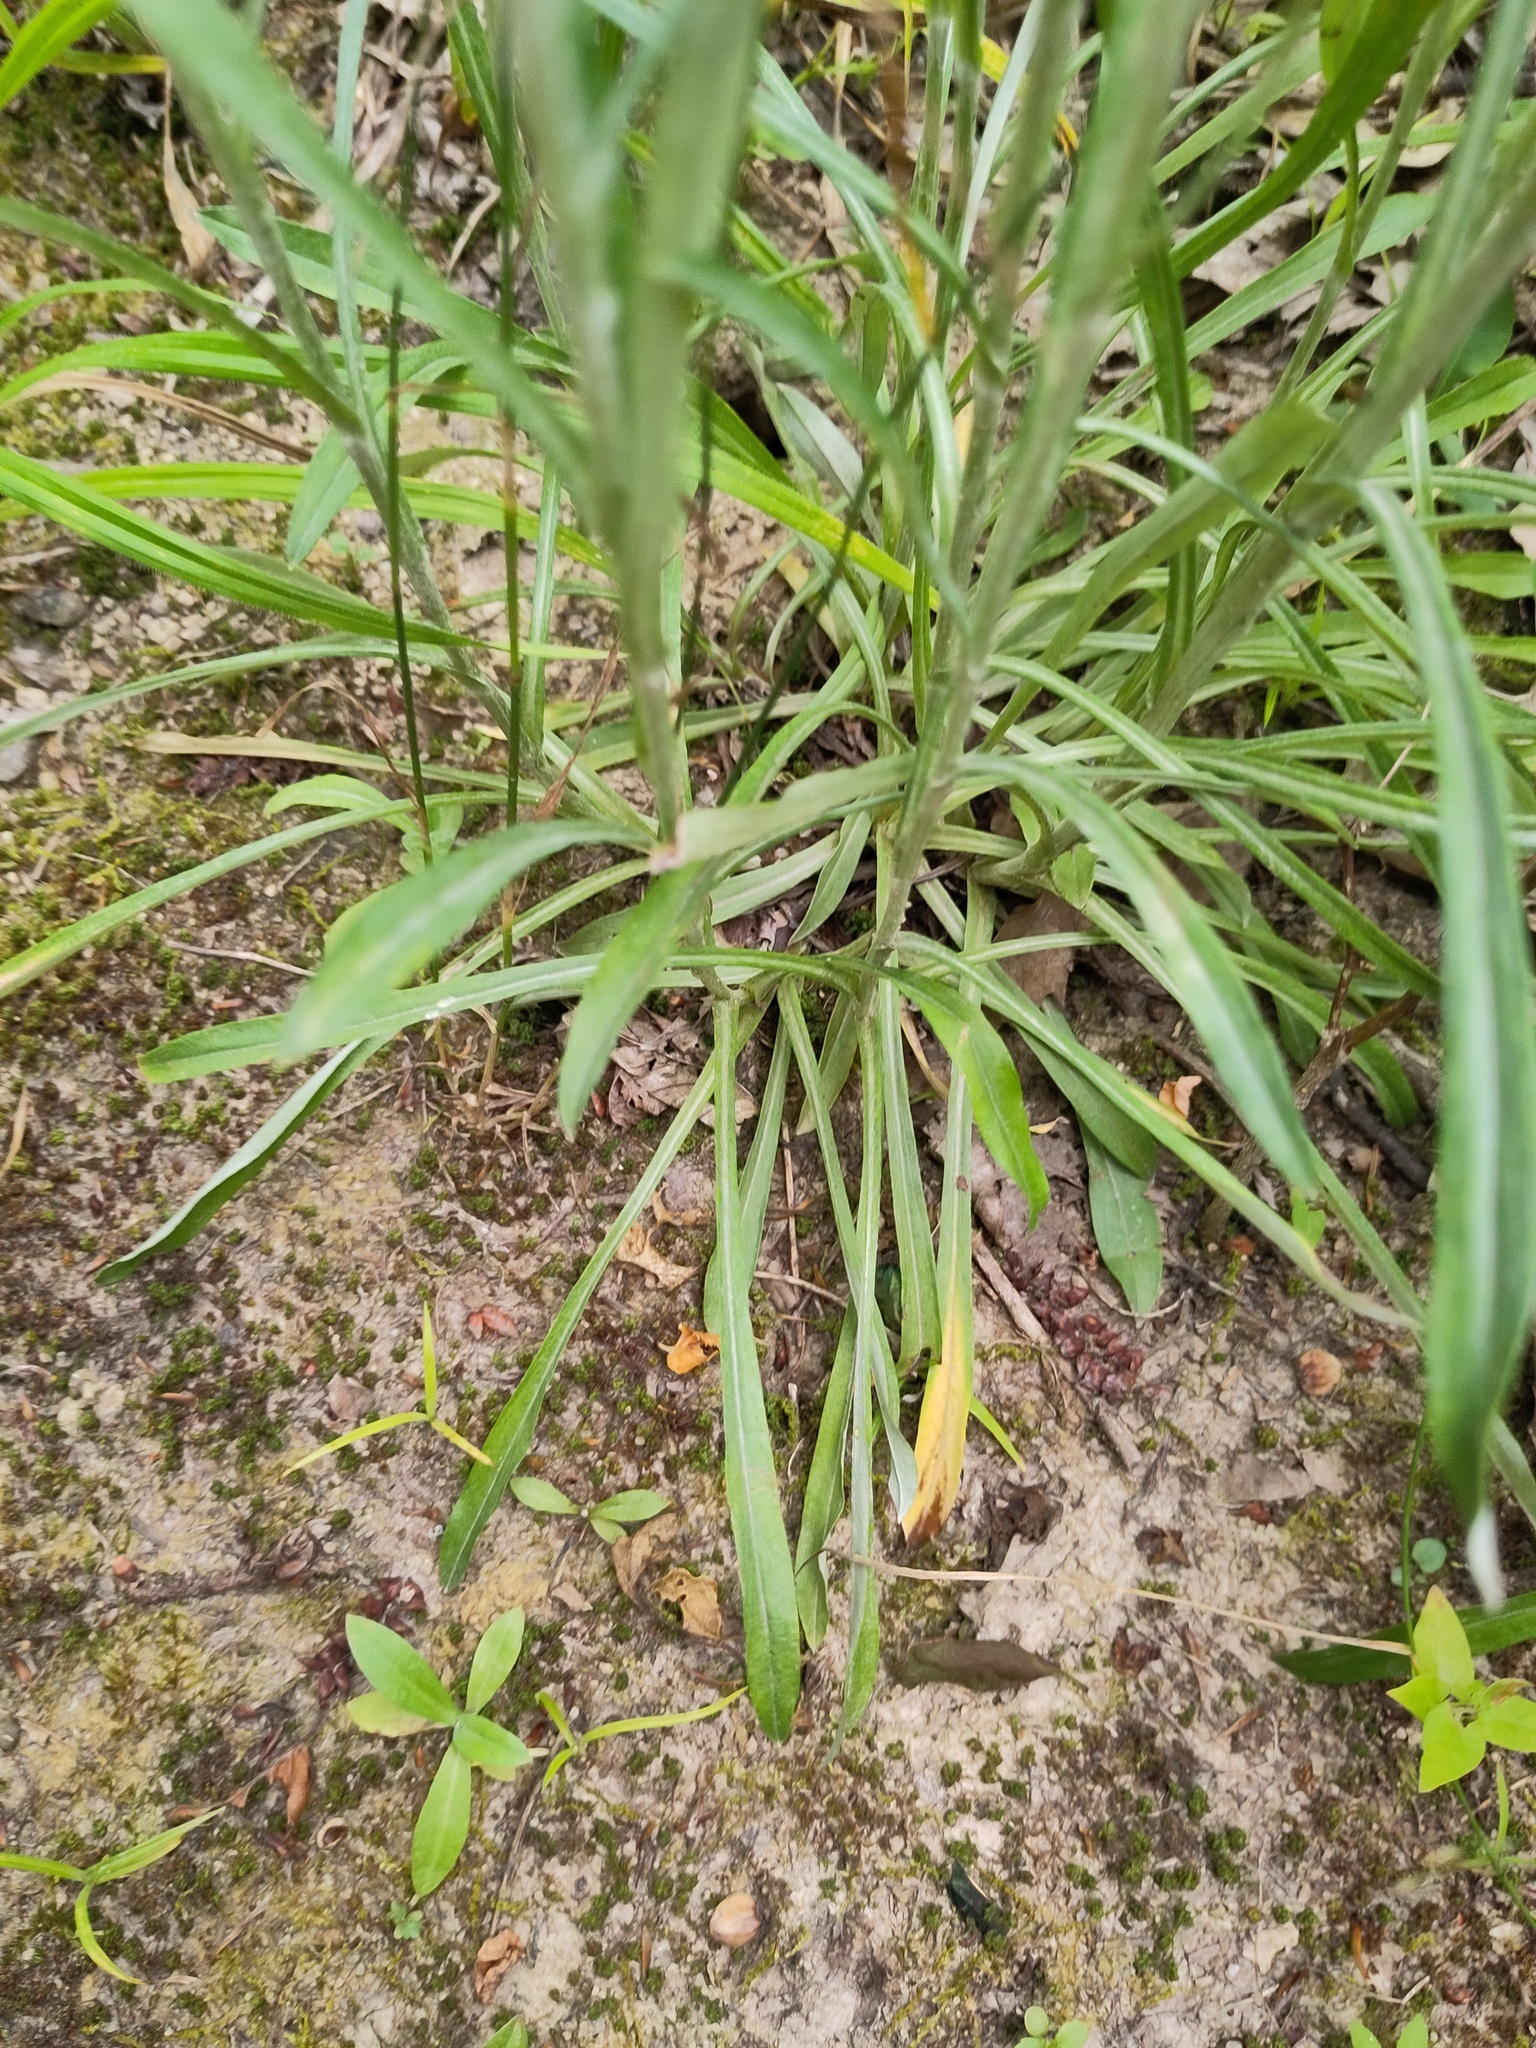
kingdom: Plantae
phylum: Tracheophyta
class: Magnoliopsida
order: Asterales
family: Asteraceae
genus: Omalotheca
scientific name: Omalotheca sylvatica
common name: Heath cudweed
